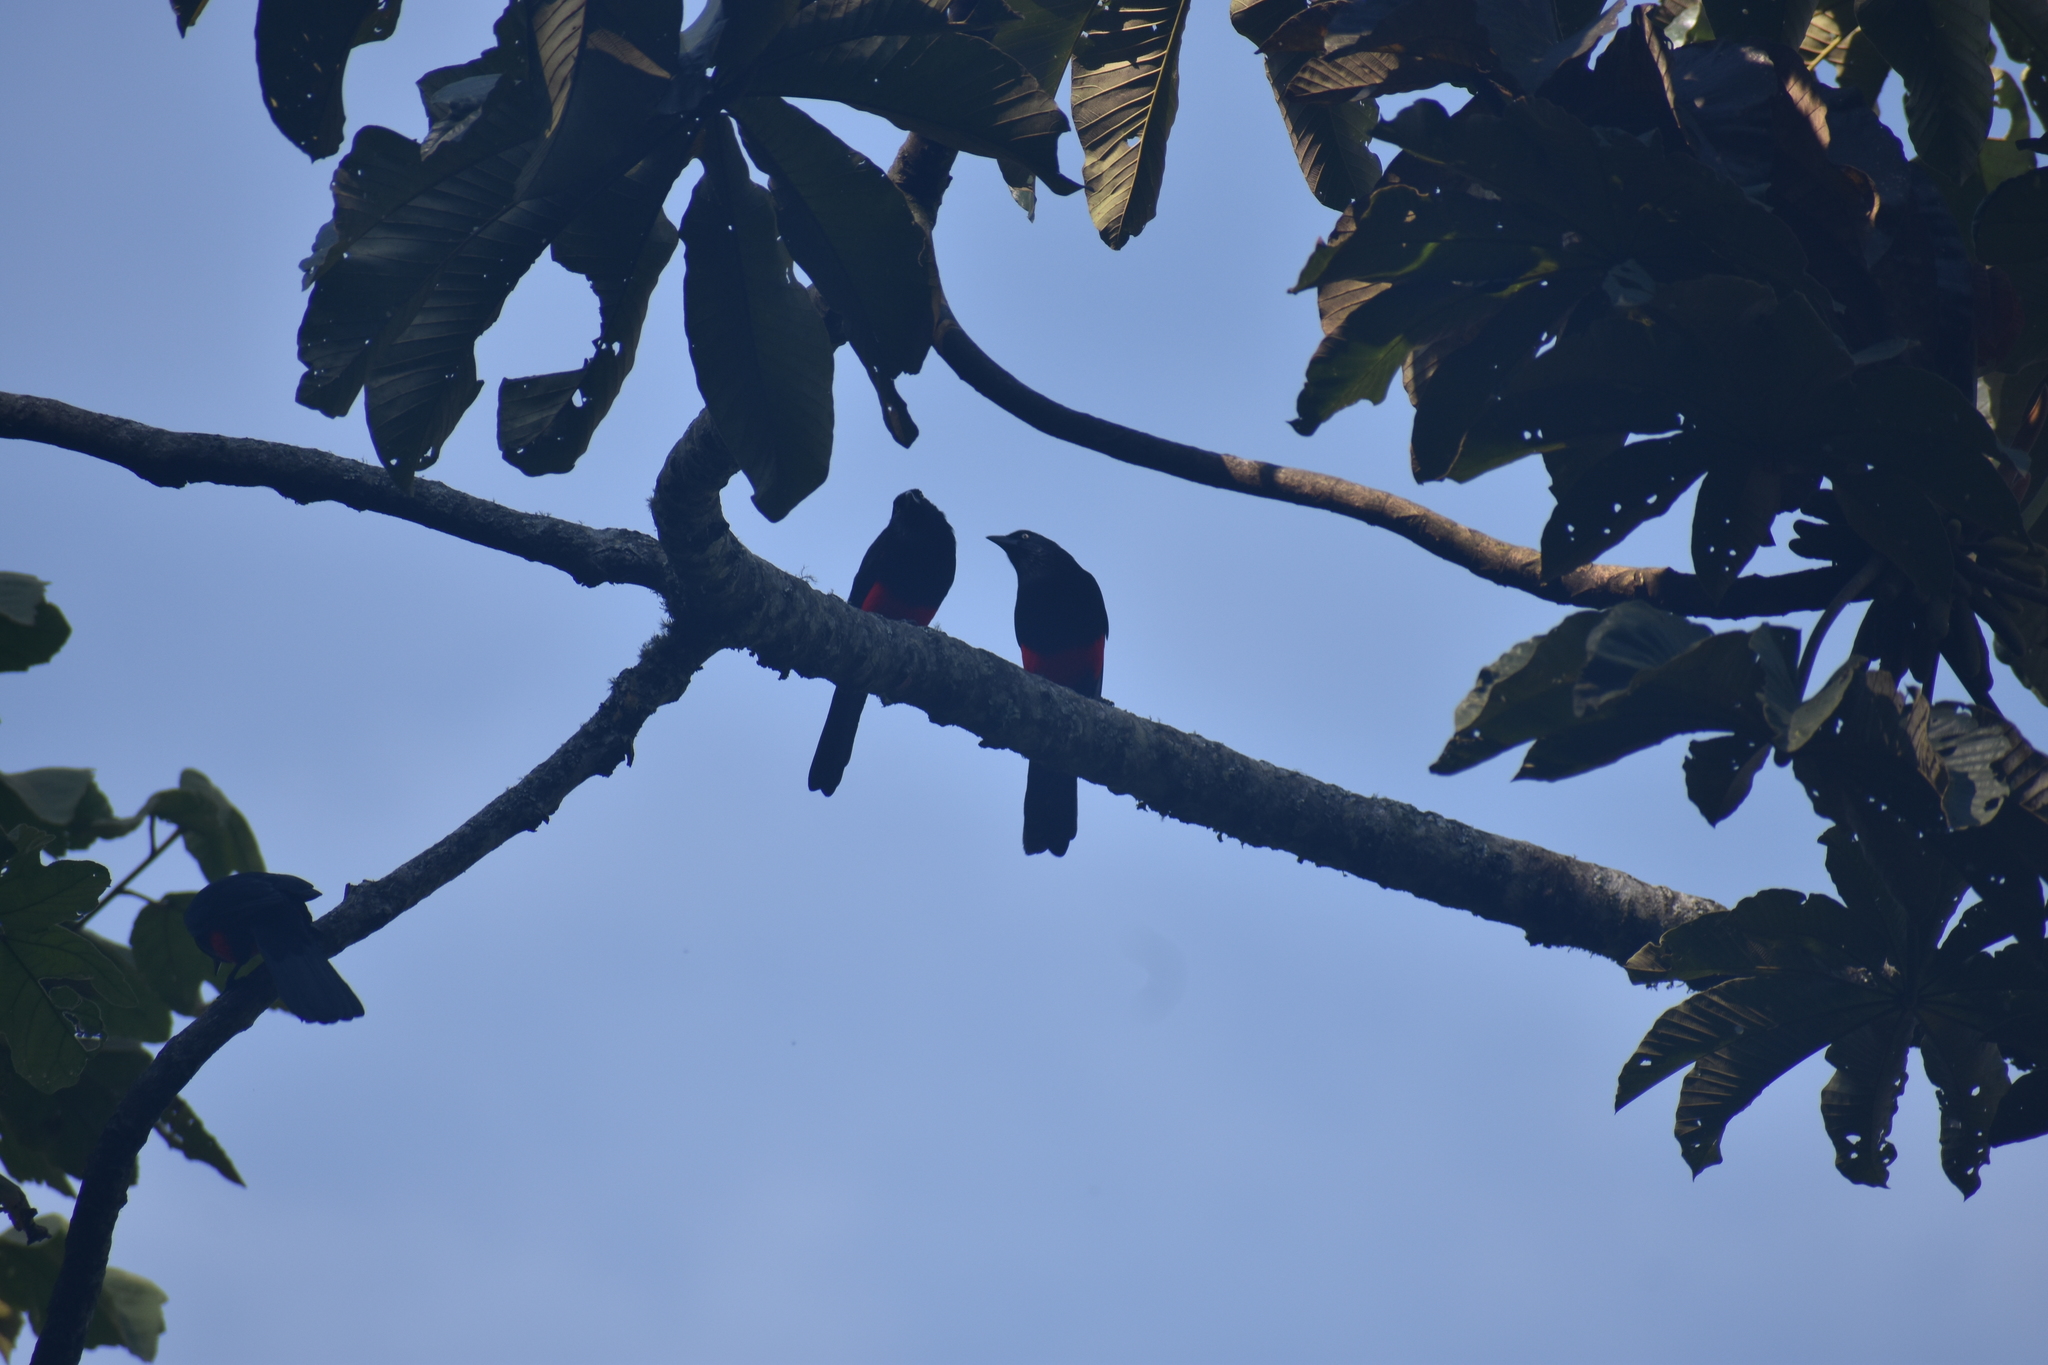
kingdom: Animalia
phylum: Chordata
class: Aves
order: Passeriformes
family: Icteridae
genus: Hypopyrrhus
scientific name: Hypopyrrhus pyrohypogaster
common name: Red-bellied grackle
